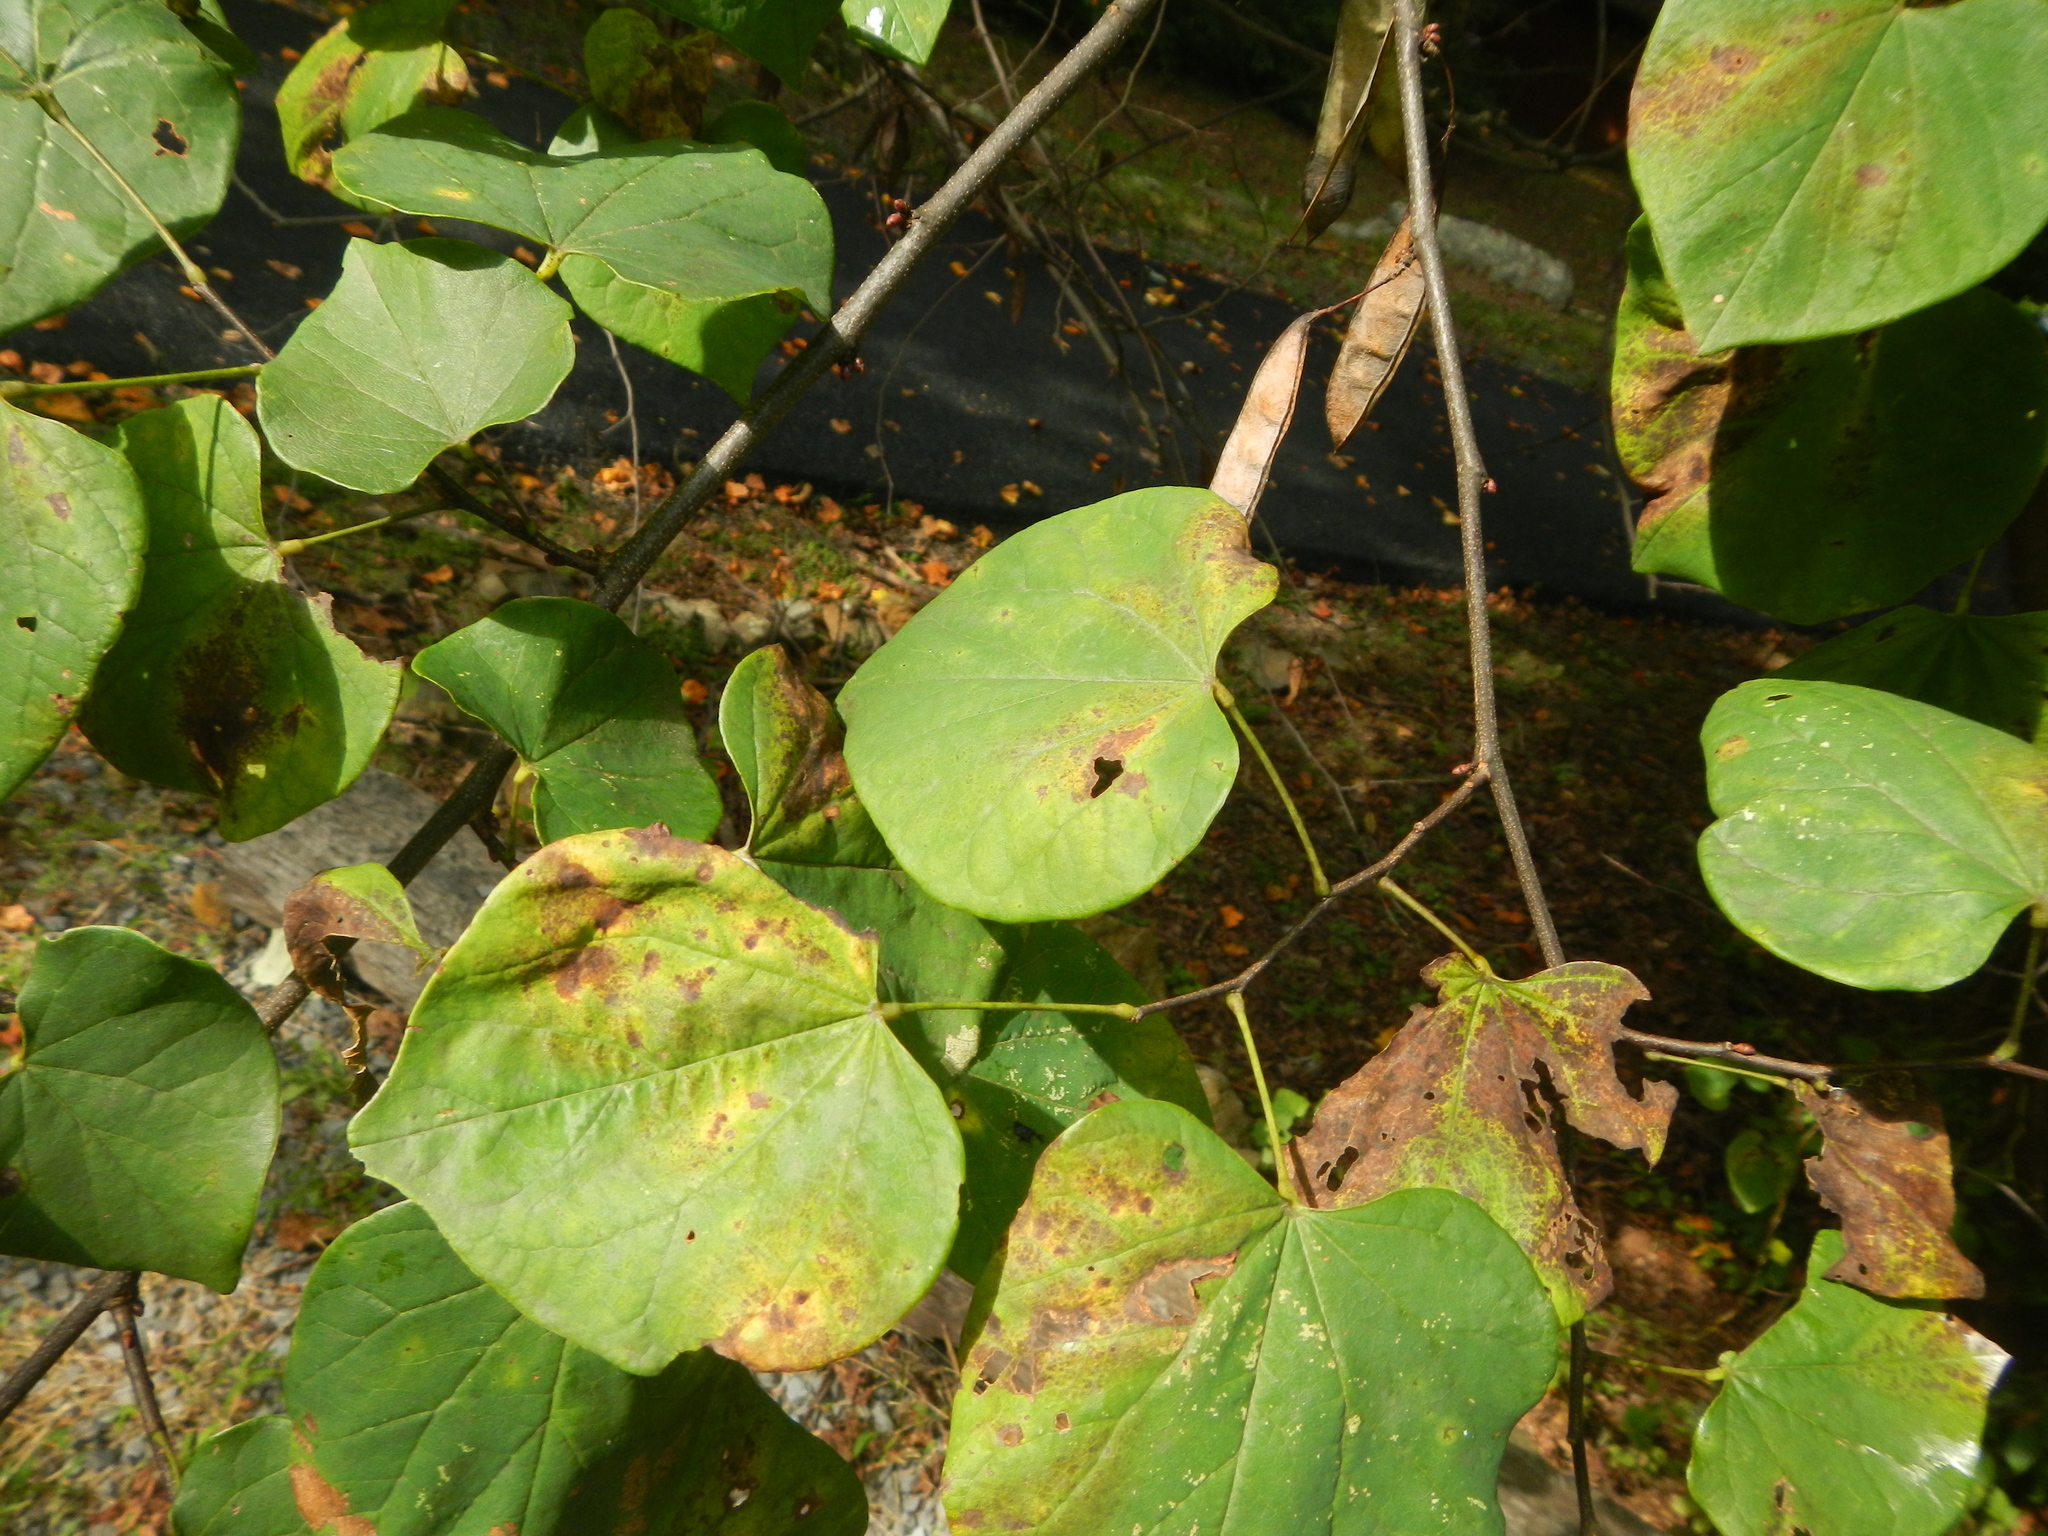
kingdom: Plantae
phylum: Tracheophyta
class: Magnoliopsida
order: Fabales
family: Fabaceae
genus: Cercis
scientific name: Cercis canadensis
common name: Eastern redbud
